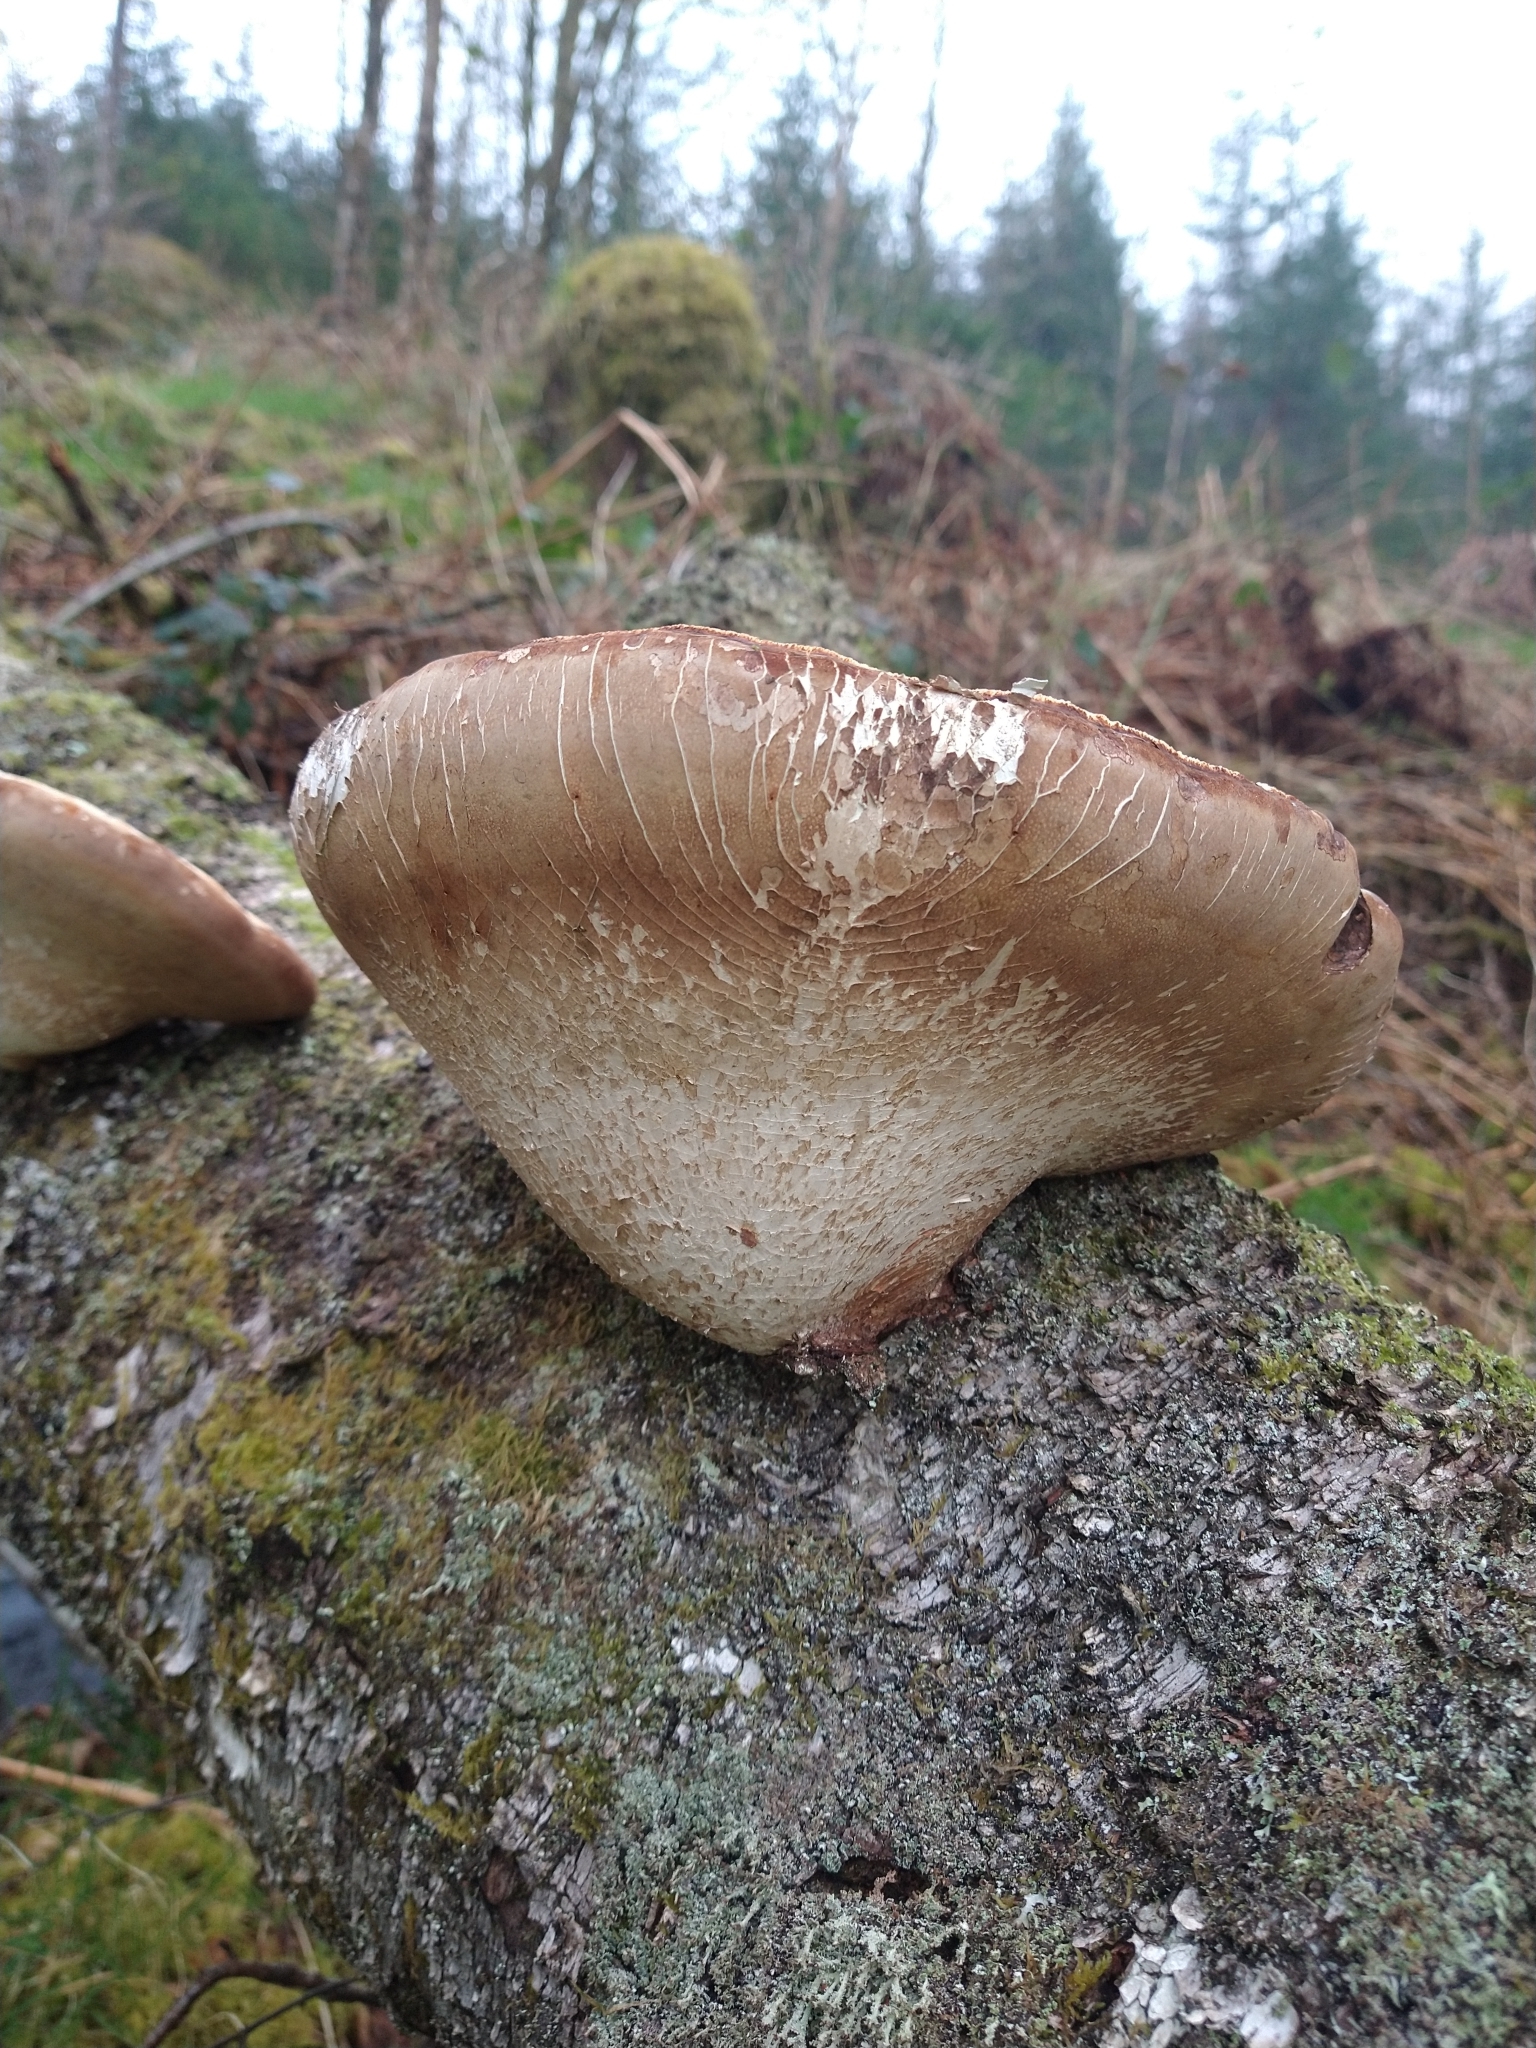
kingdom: Fungi
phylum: Basidiomycota
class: Agaricomycetes
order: Polyporales
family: Fomitopsidaceae
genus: Fomitopsis
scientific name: Fomitopsis betulina
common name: Birch polypore
